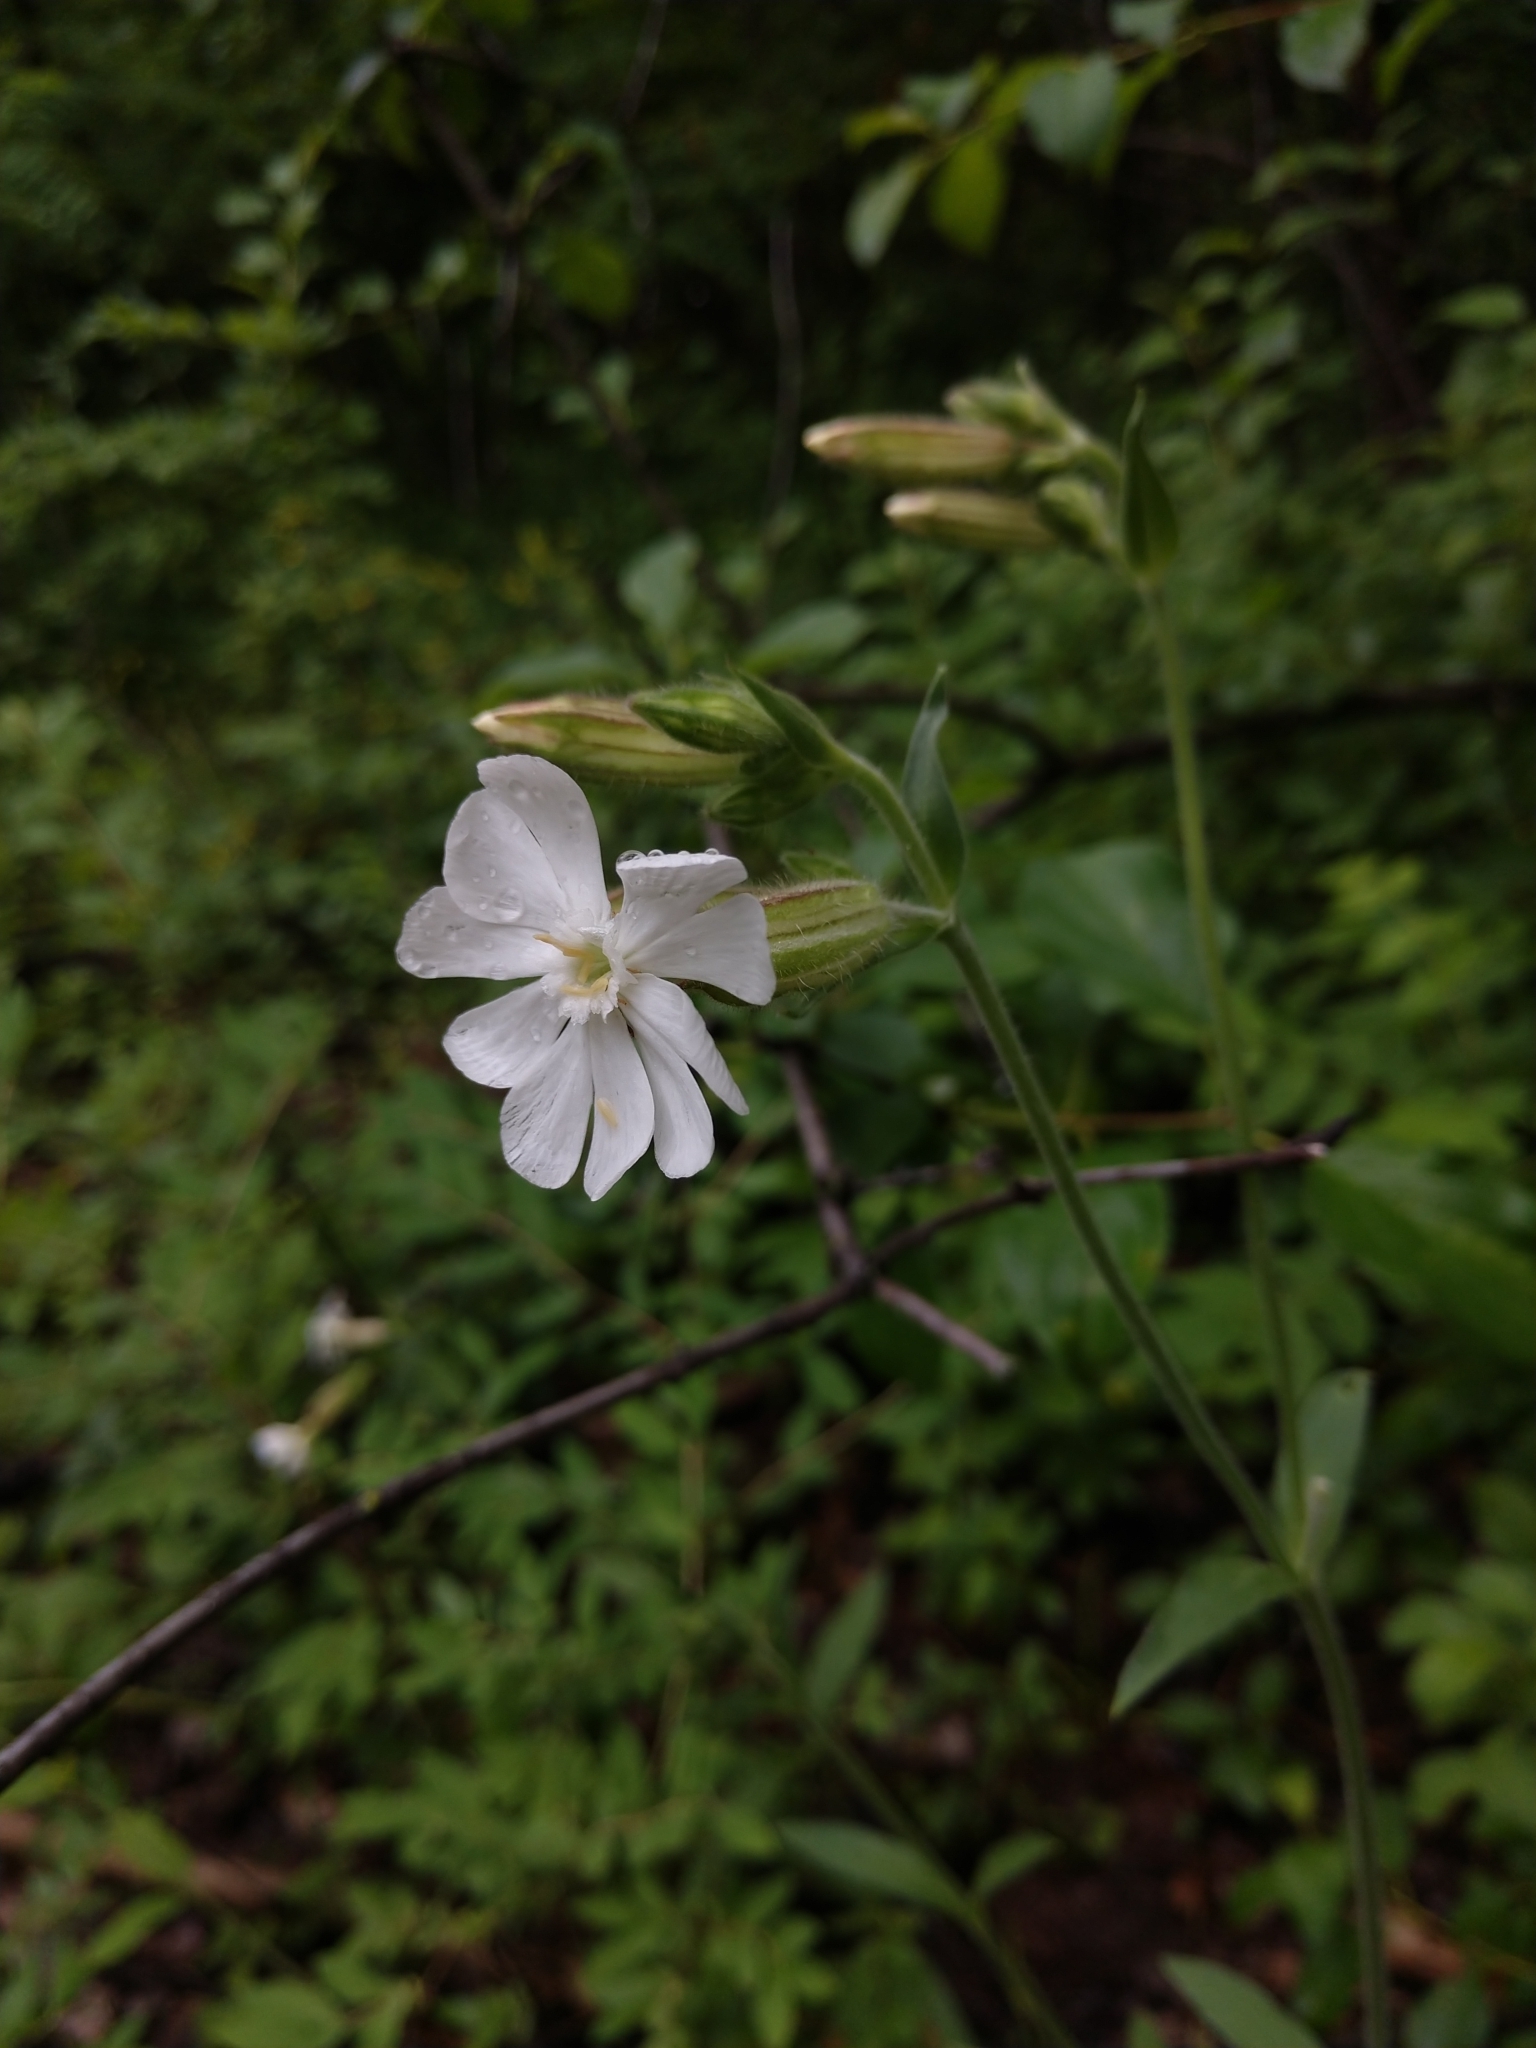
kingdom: Plantae
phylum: Tracheophyta
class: Magnoliopsida
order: Caryophyllales
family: Caryophyllaceae
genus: Silene
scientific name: Silene latifolia
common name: White campion
